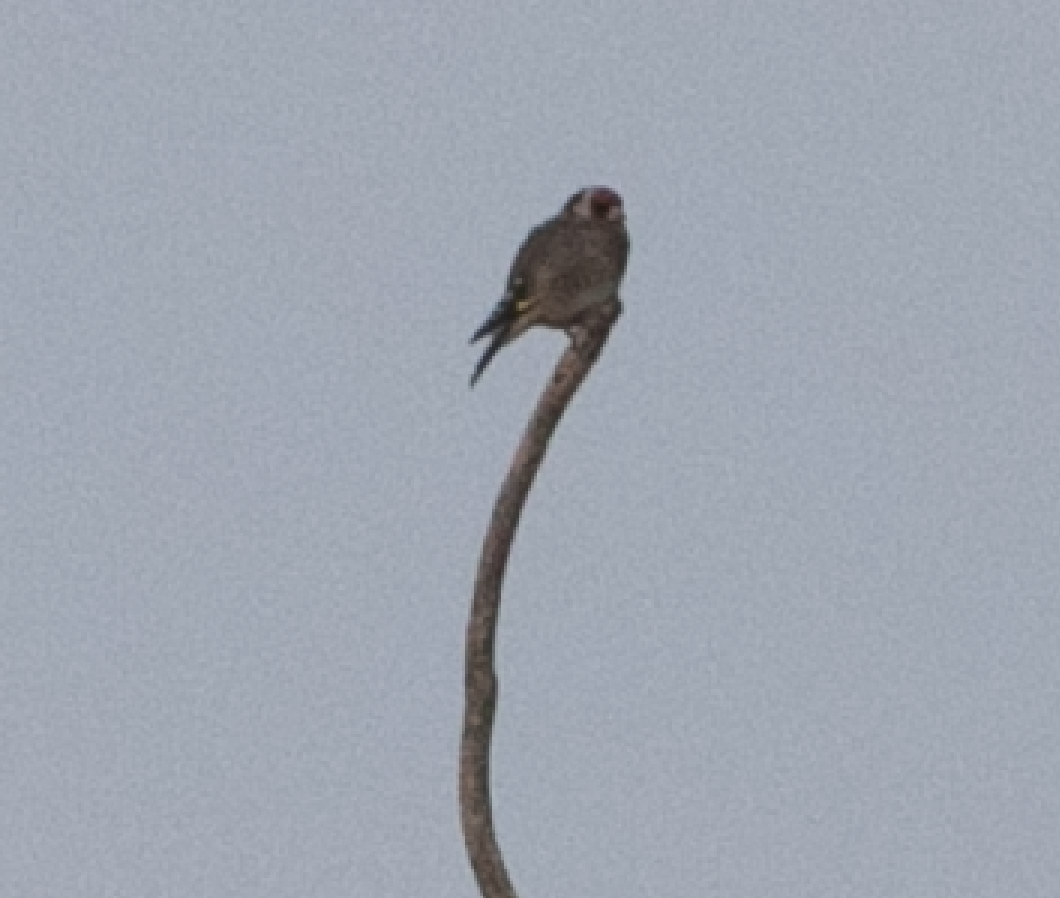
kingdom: Animalia
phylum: Chordata
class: Aves
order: Passeriformes
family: Fringillidae
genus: Carduelis
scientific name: Carduelis carduelis
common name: European goldfinch
